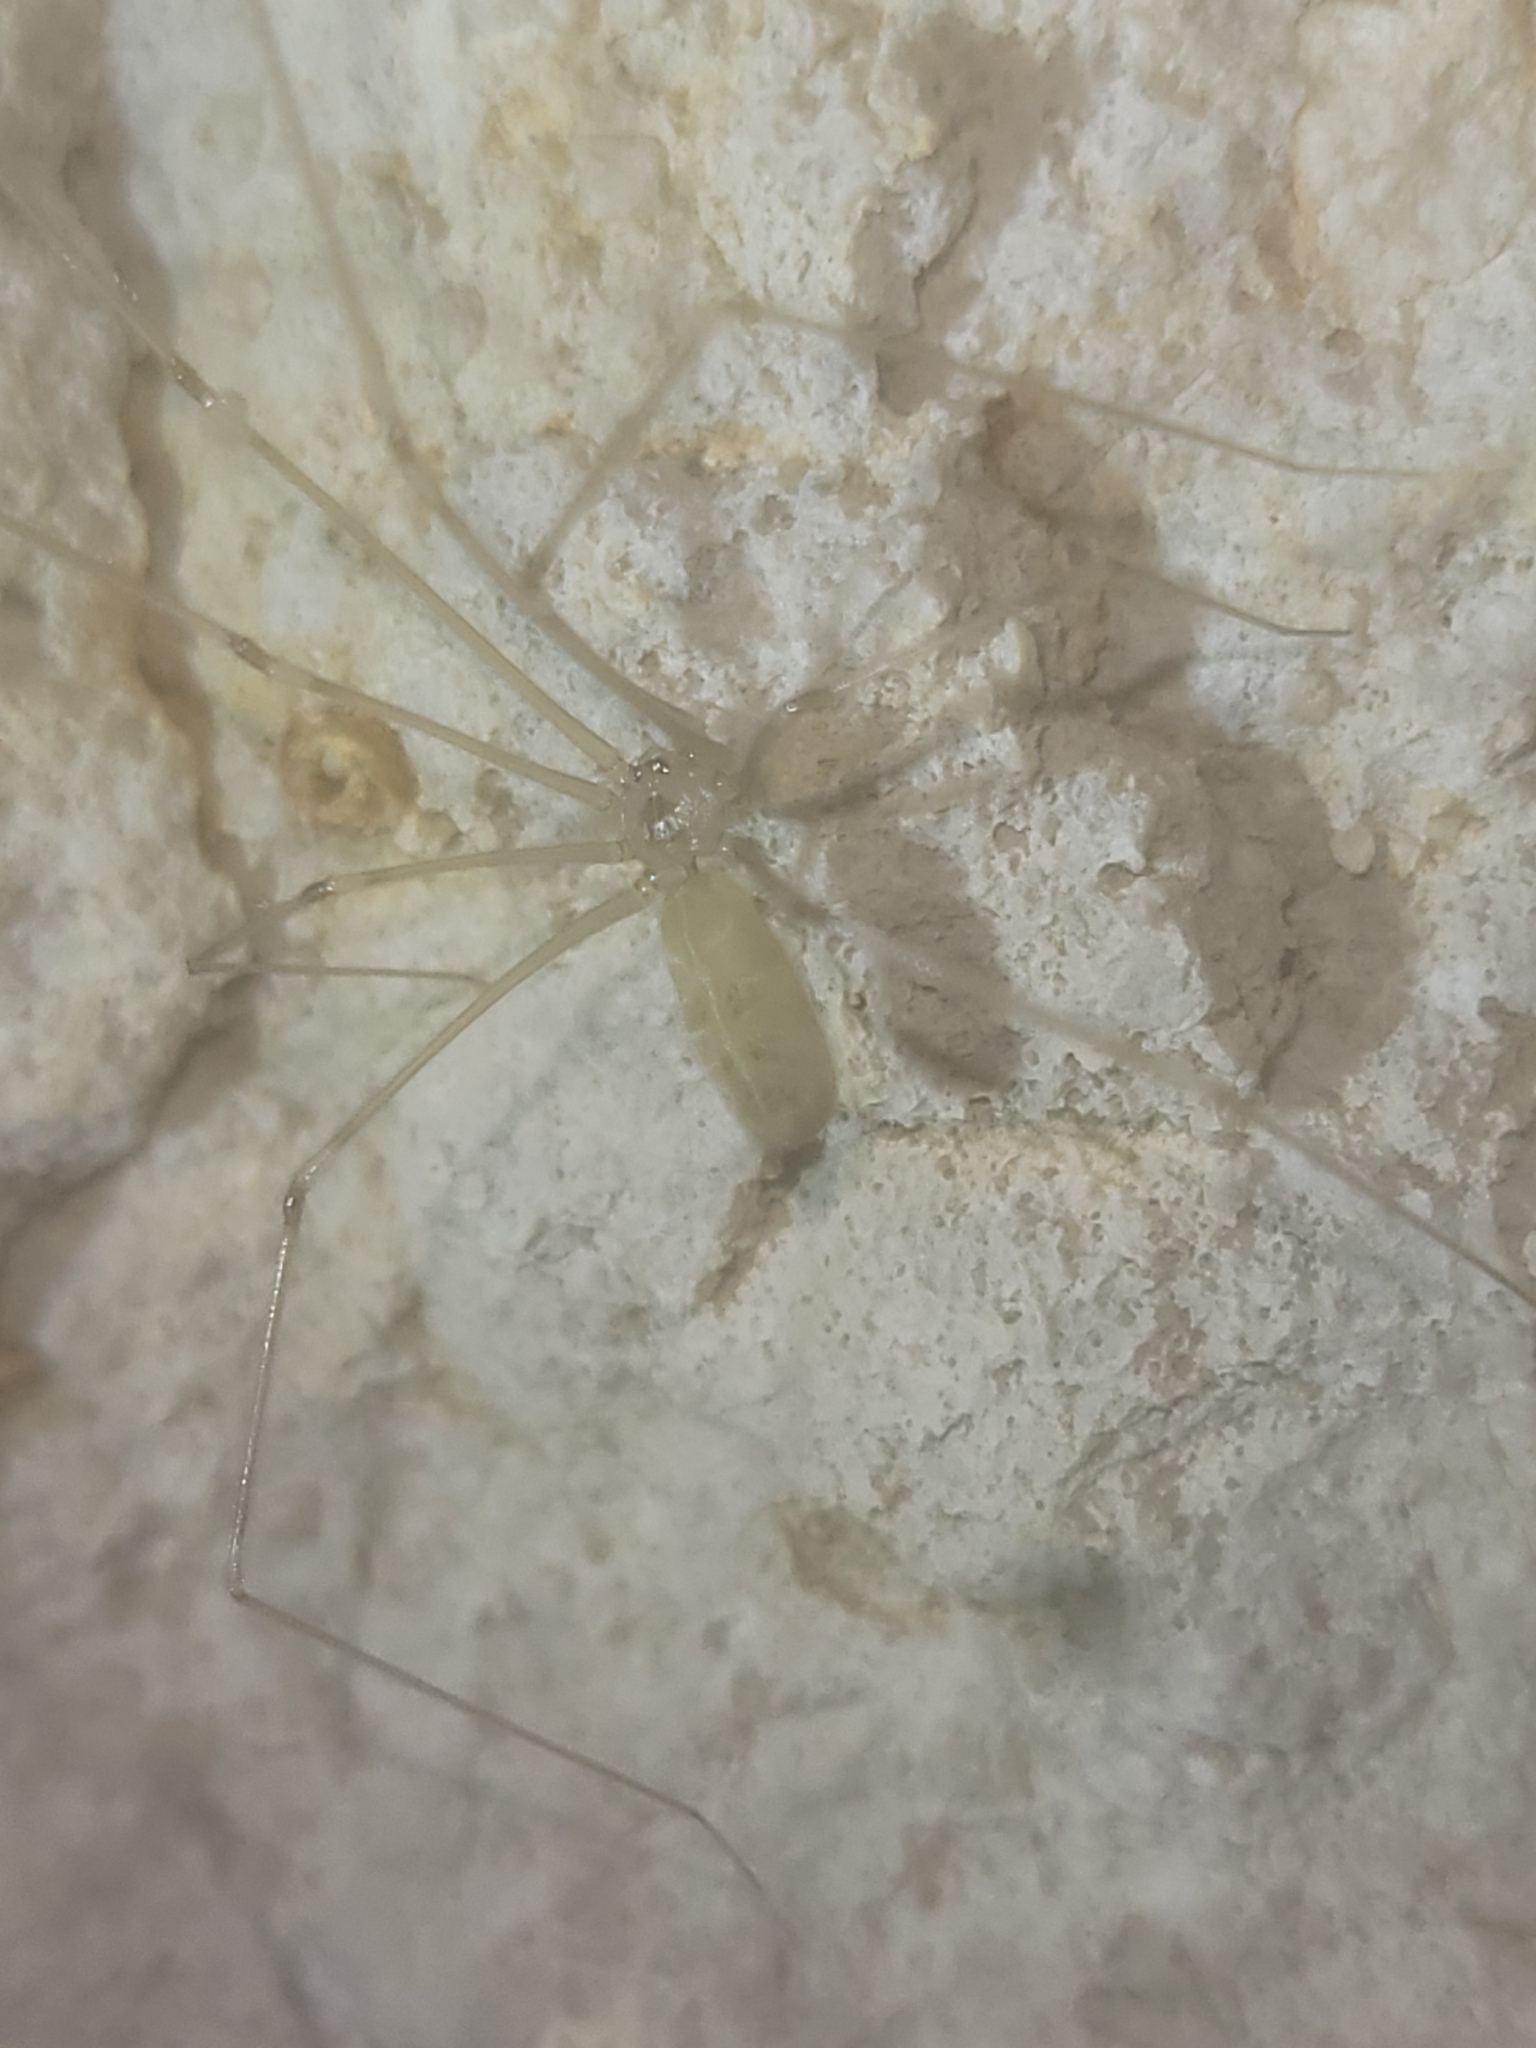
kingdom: Animalia
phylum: Arthropoda
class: Arachnida
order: Araneae
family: Pholcidae
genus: Pholcus
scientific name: Pholcus phalangioides
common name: Longbodied cellar spider
